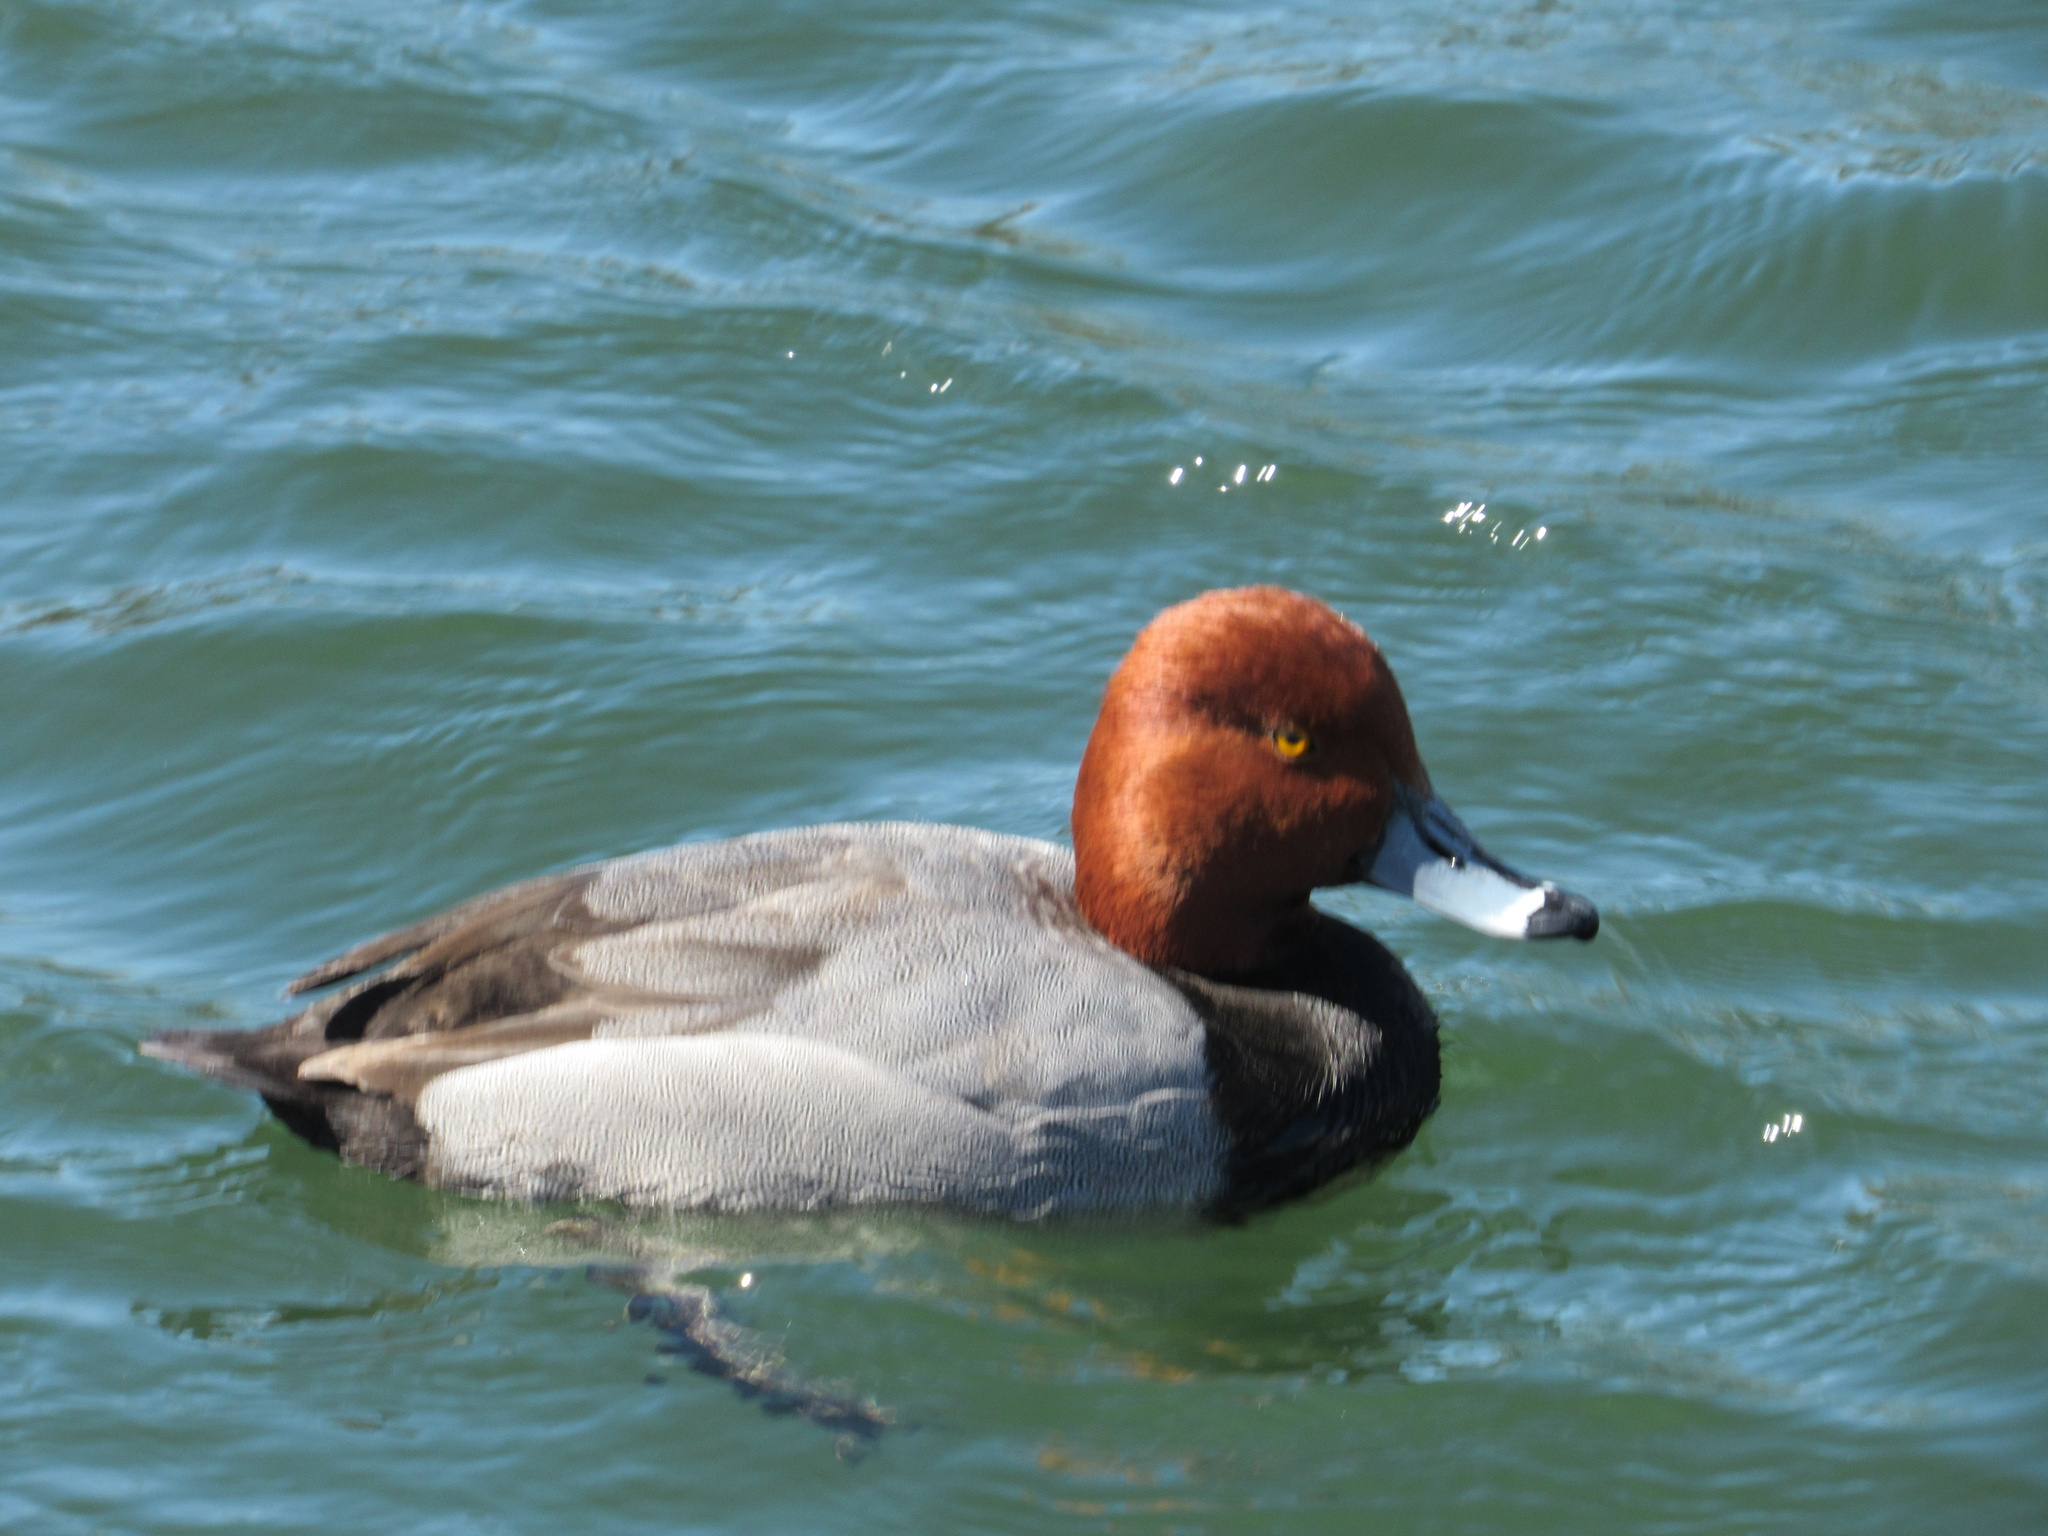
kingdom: Animalia
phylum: Chordata
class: Aves
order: Anseriformes
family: Anatidae
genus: Aythya
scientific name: Aythya americana
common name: Redhead
